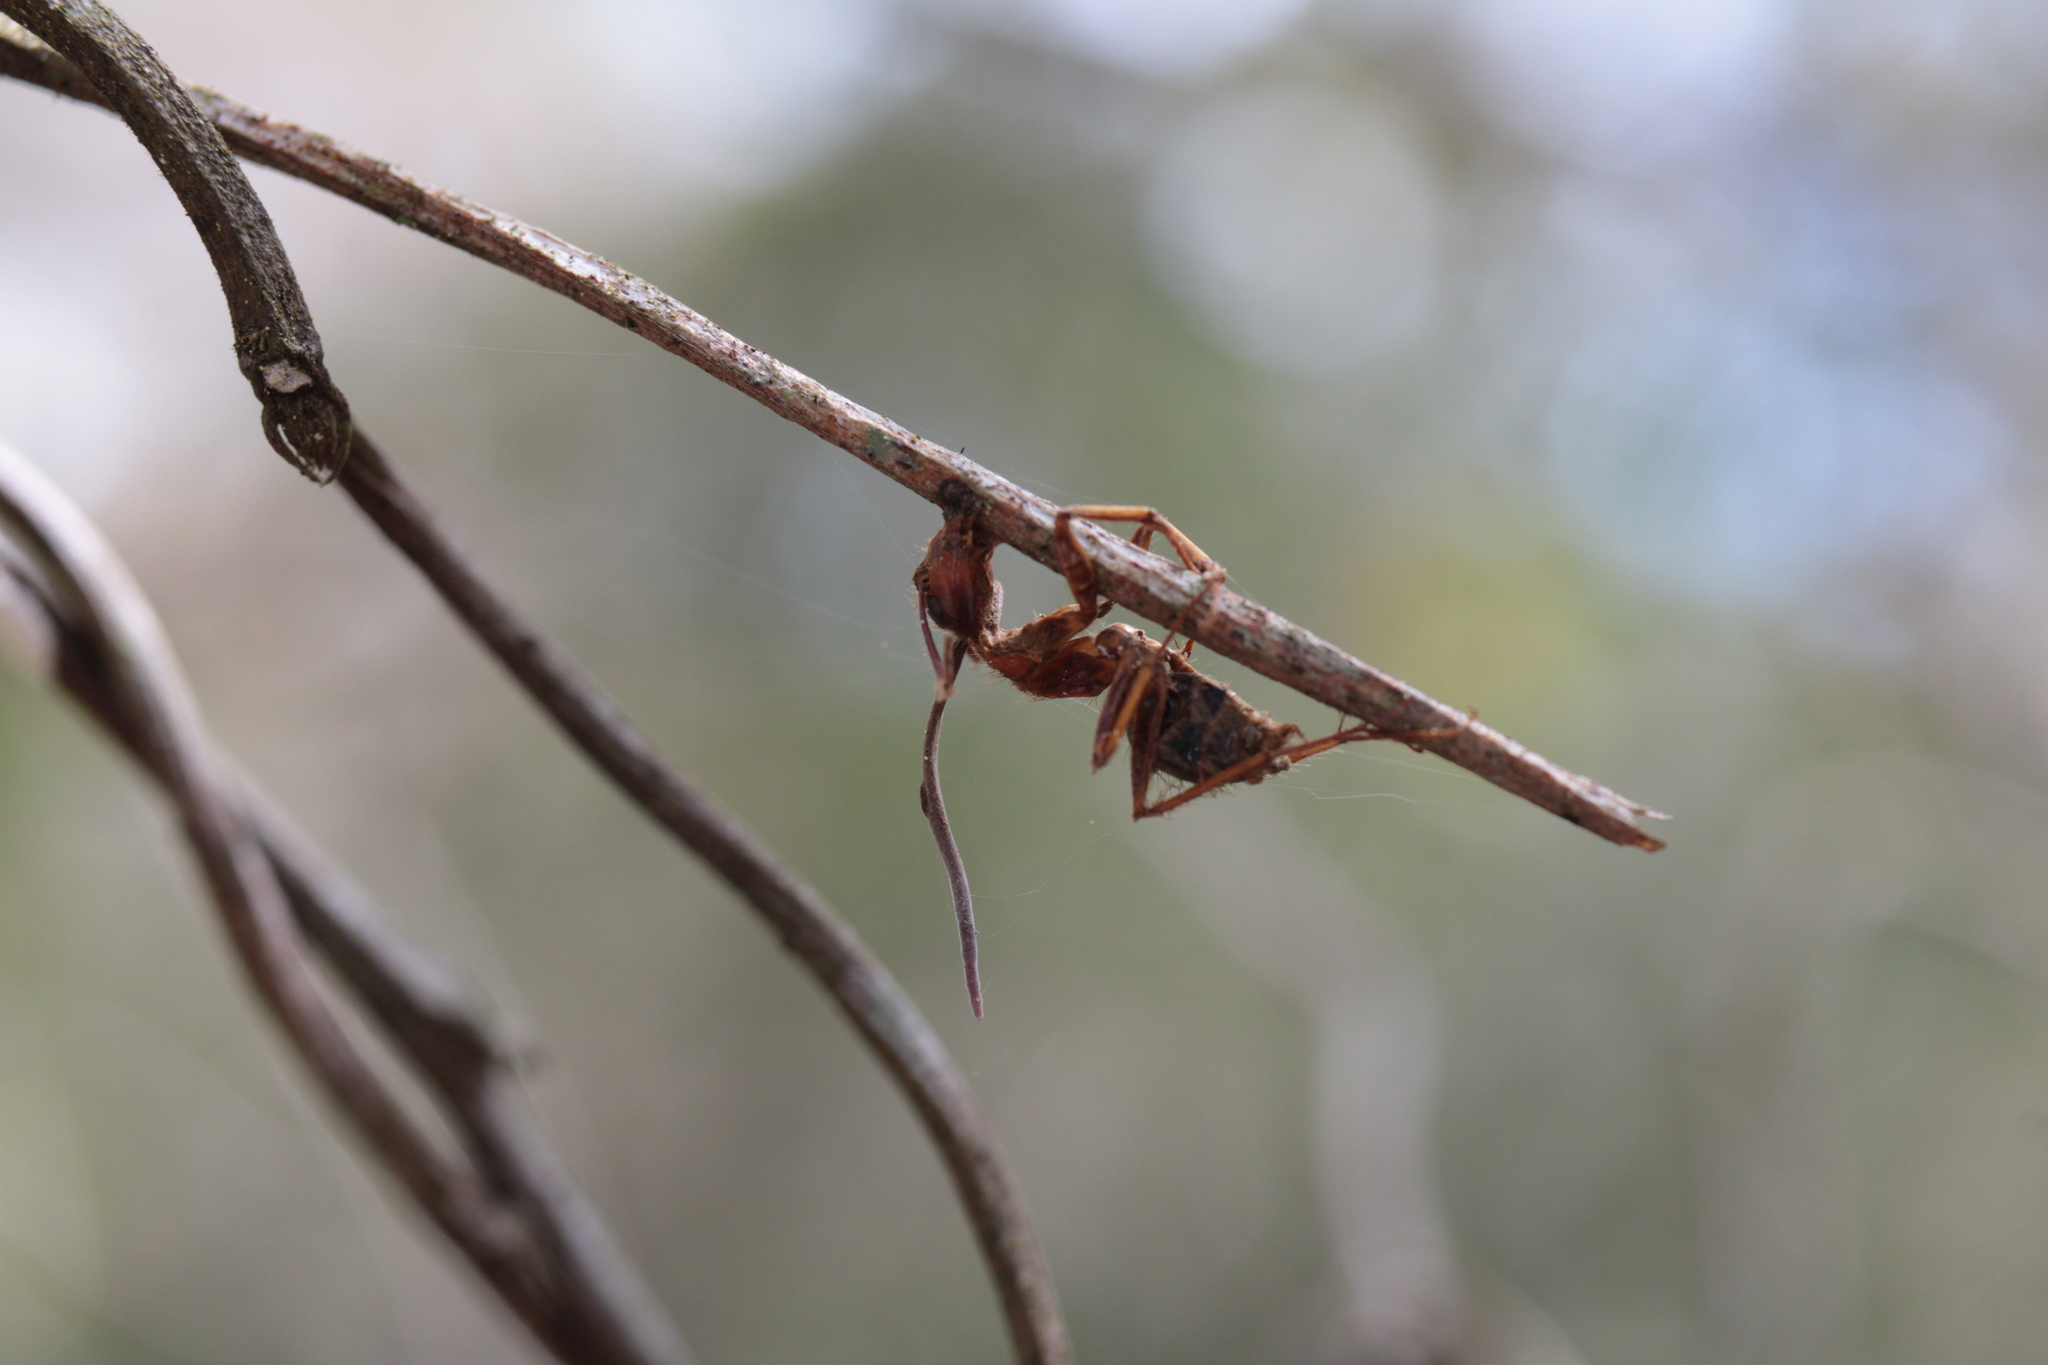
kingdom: Fungi
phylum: Ascomycota
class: Sordariomycetes
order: Hypocreales
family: Ophiocordycipitaceae
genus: Ophiocordyceps
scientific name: Ophiocordyceps camponoti-floridani
